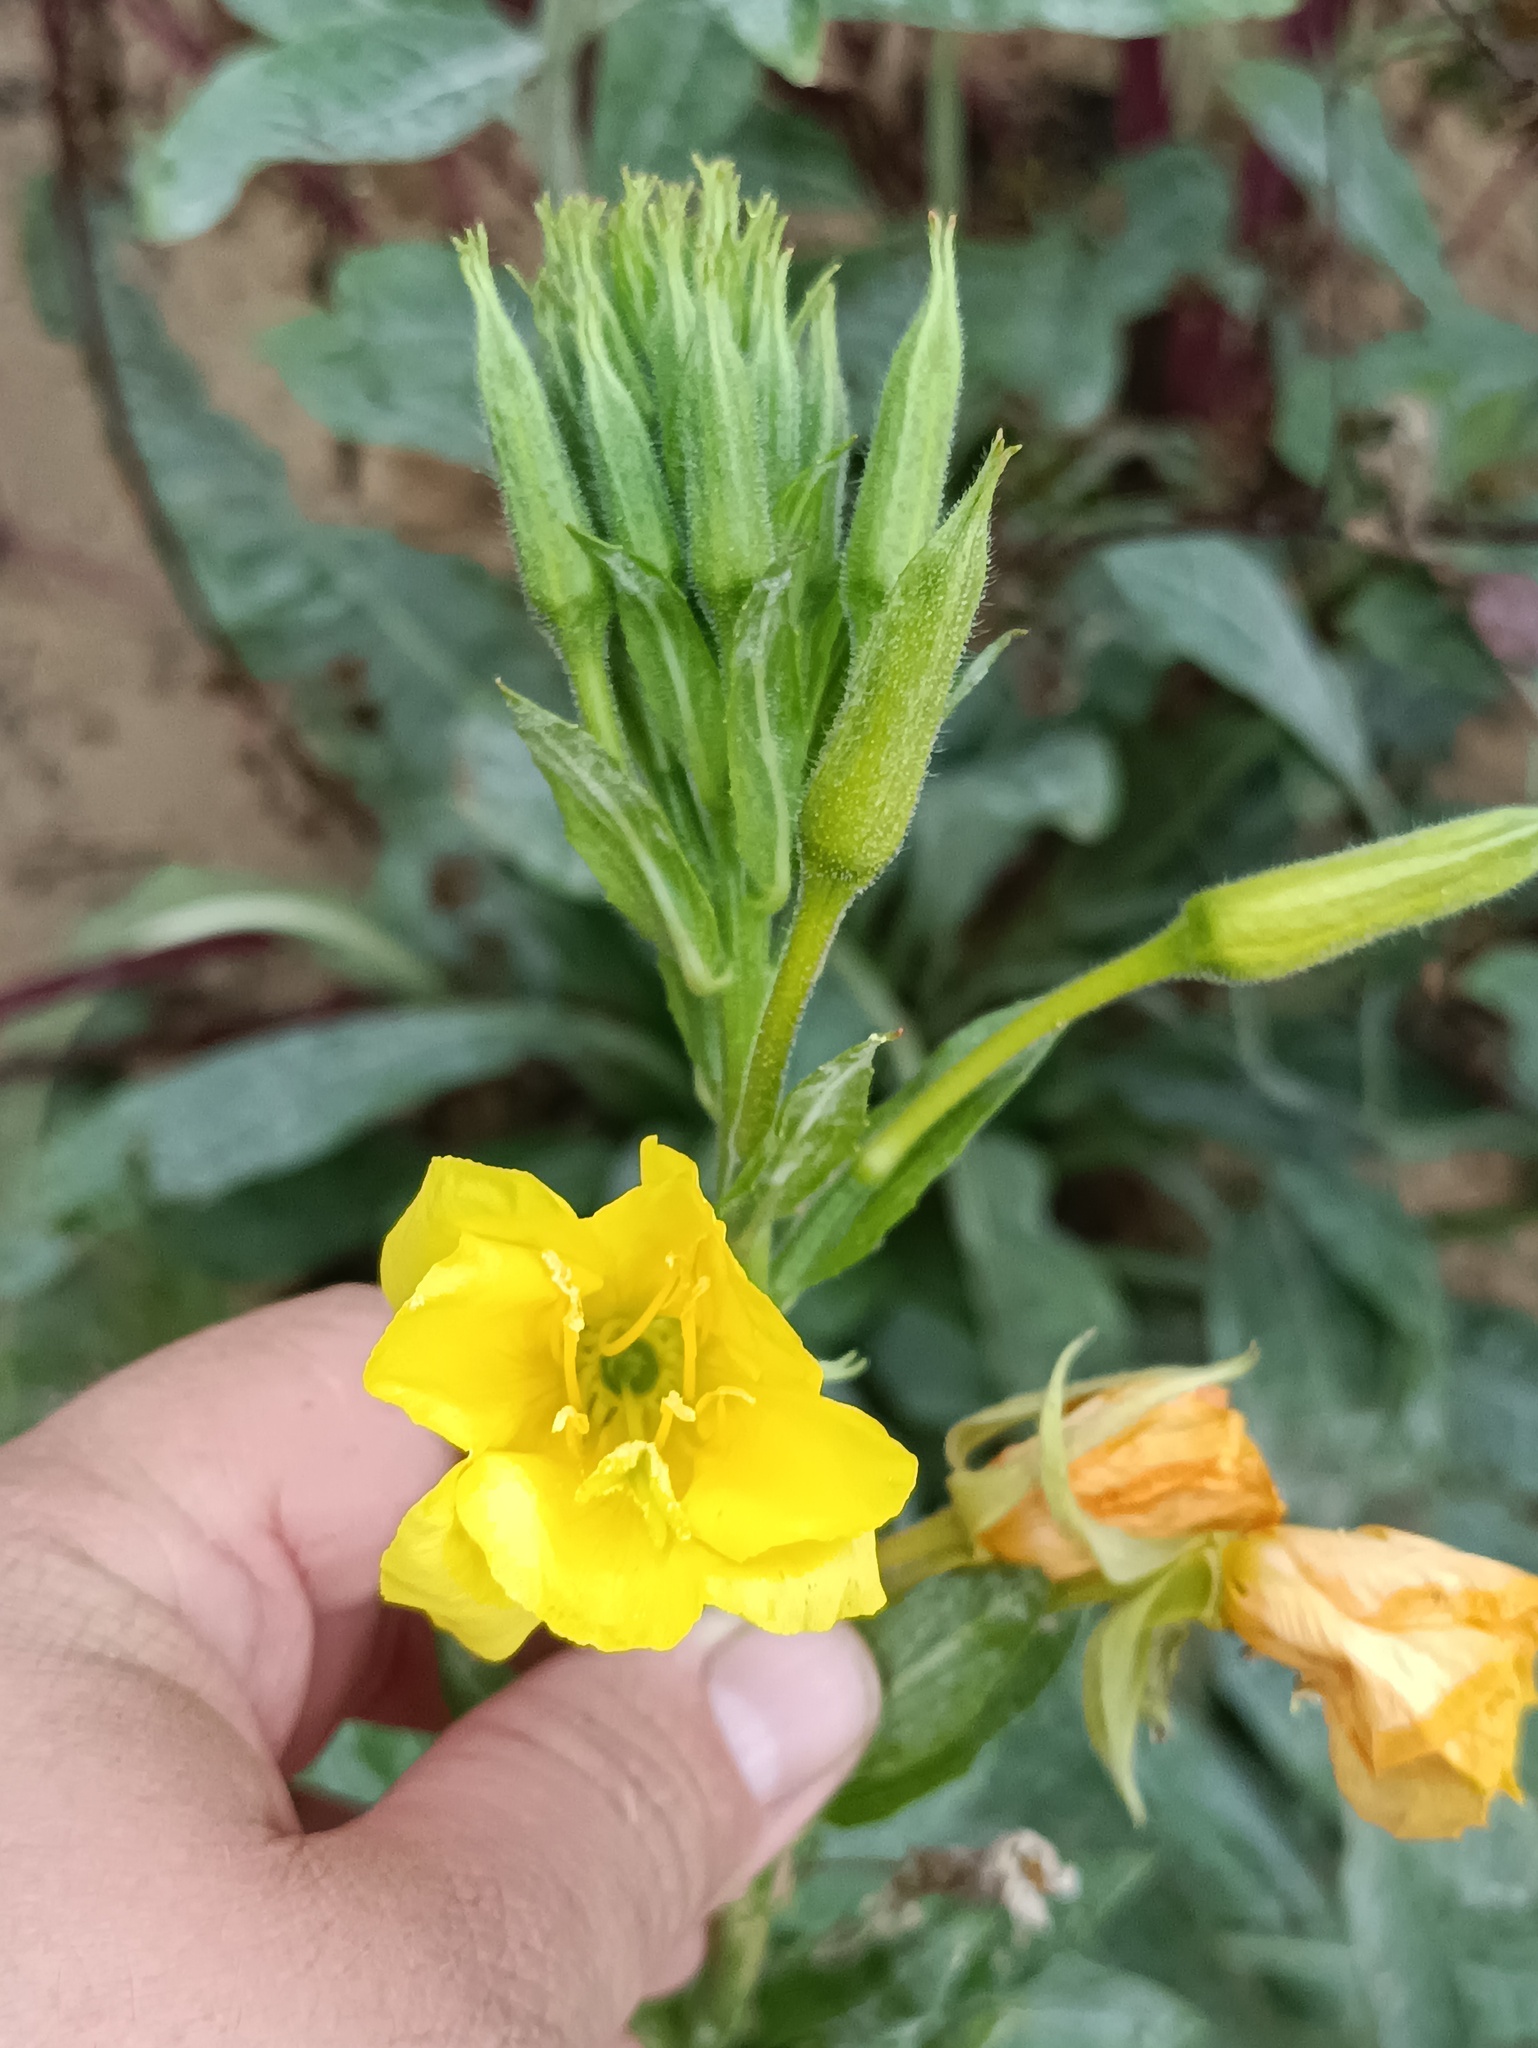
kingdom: Plantae
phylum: Tracheophyta
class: Magnoliopsida
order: Myrtales
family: Onagraceae
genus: Oenothera
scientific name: Oenothera biennis
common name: Common evening-primrose
